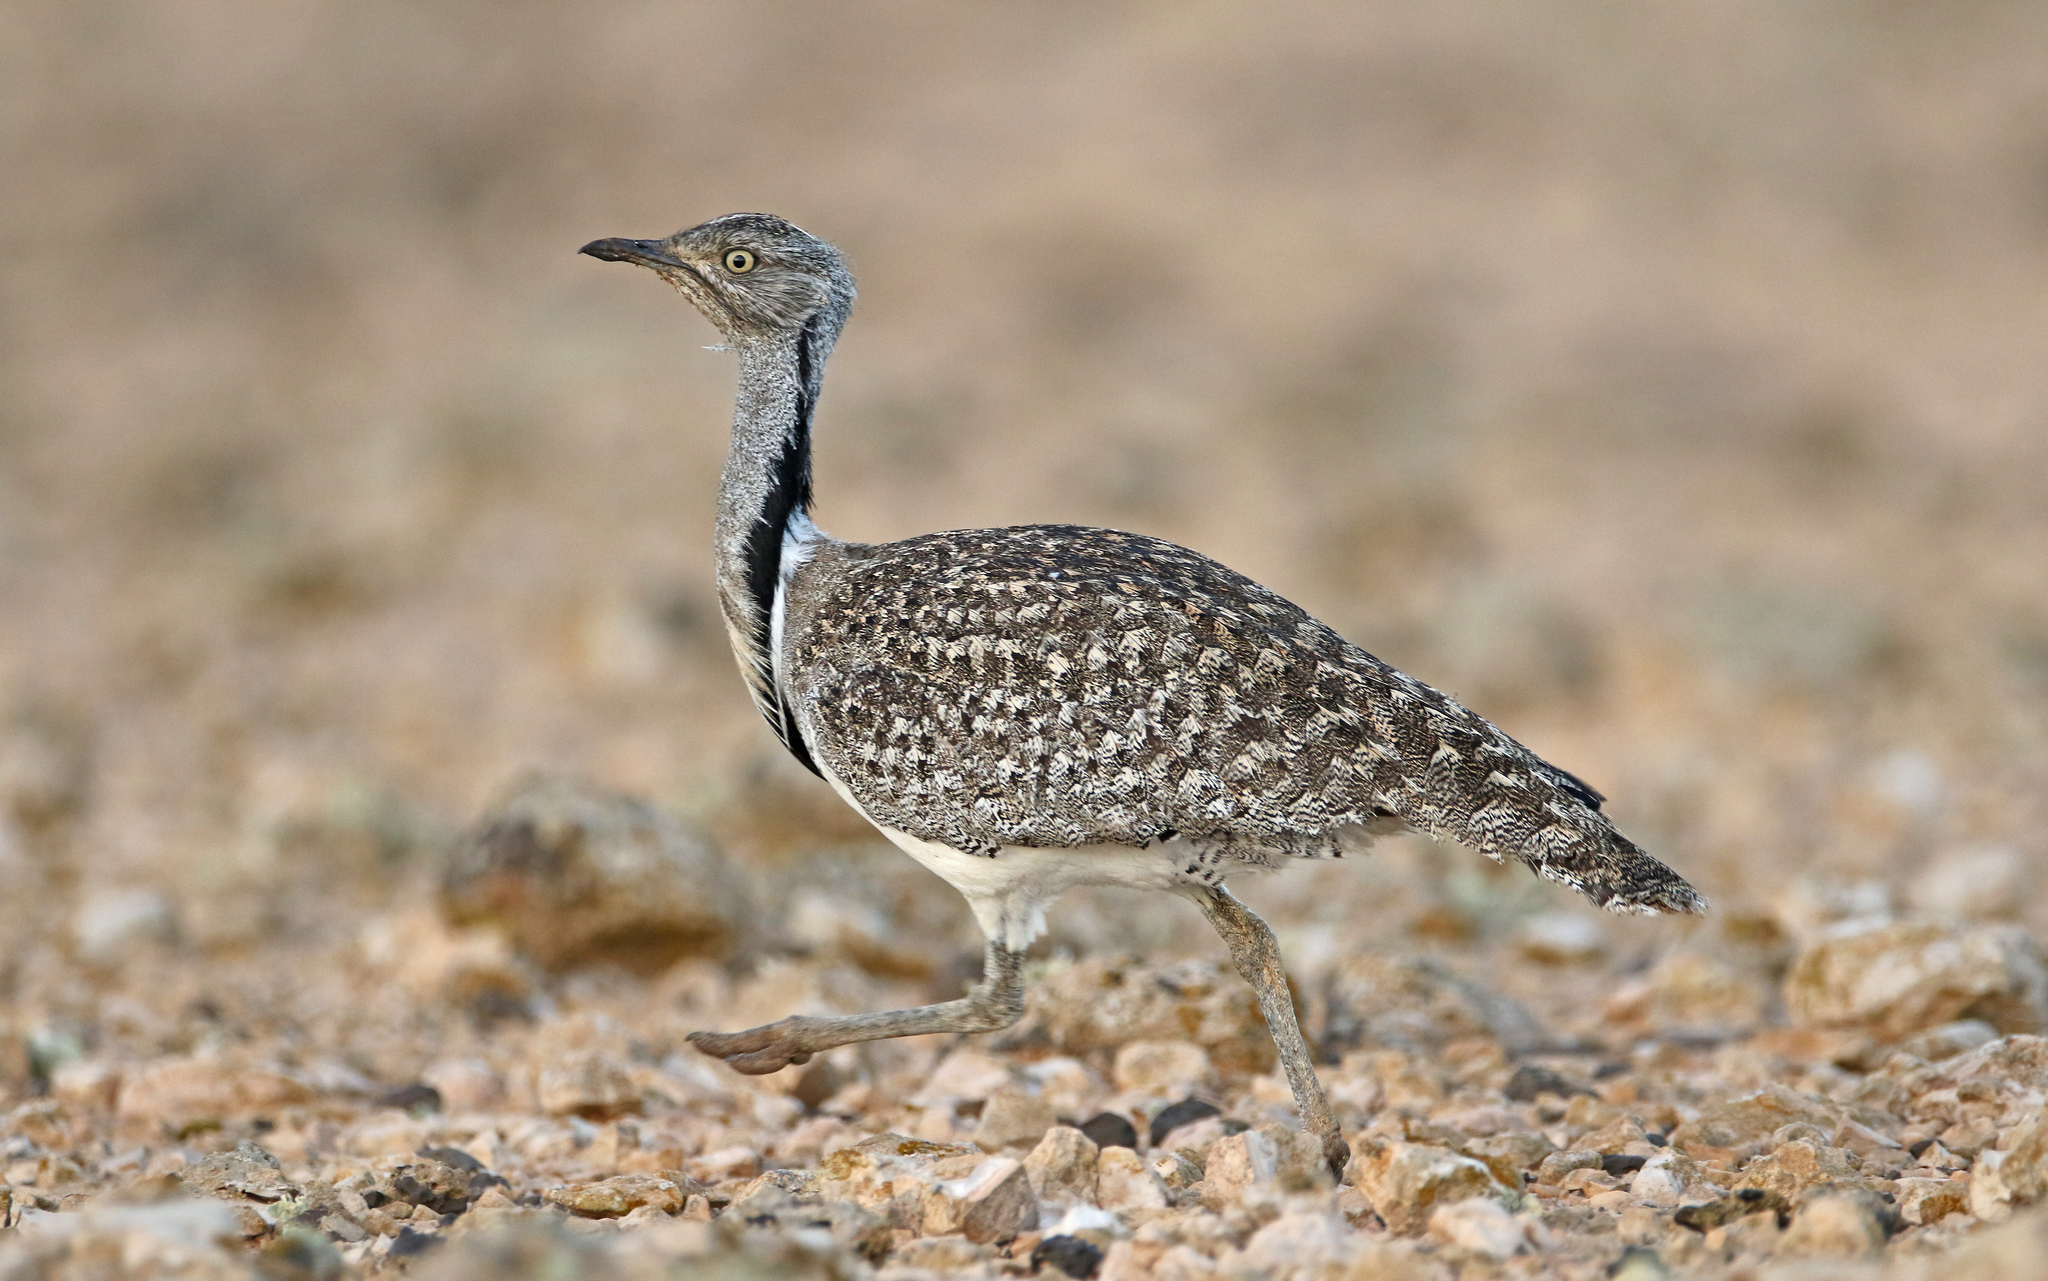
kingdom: Animalia
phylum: Chordata
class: Aves
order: Otidiformes
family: Otididae
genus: Chlamydotis
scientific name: Chlamydotis undulata
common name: Houbara bustard
